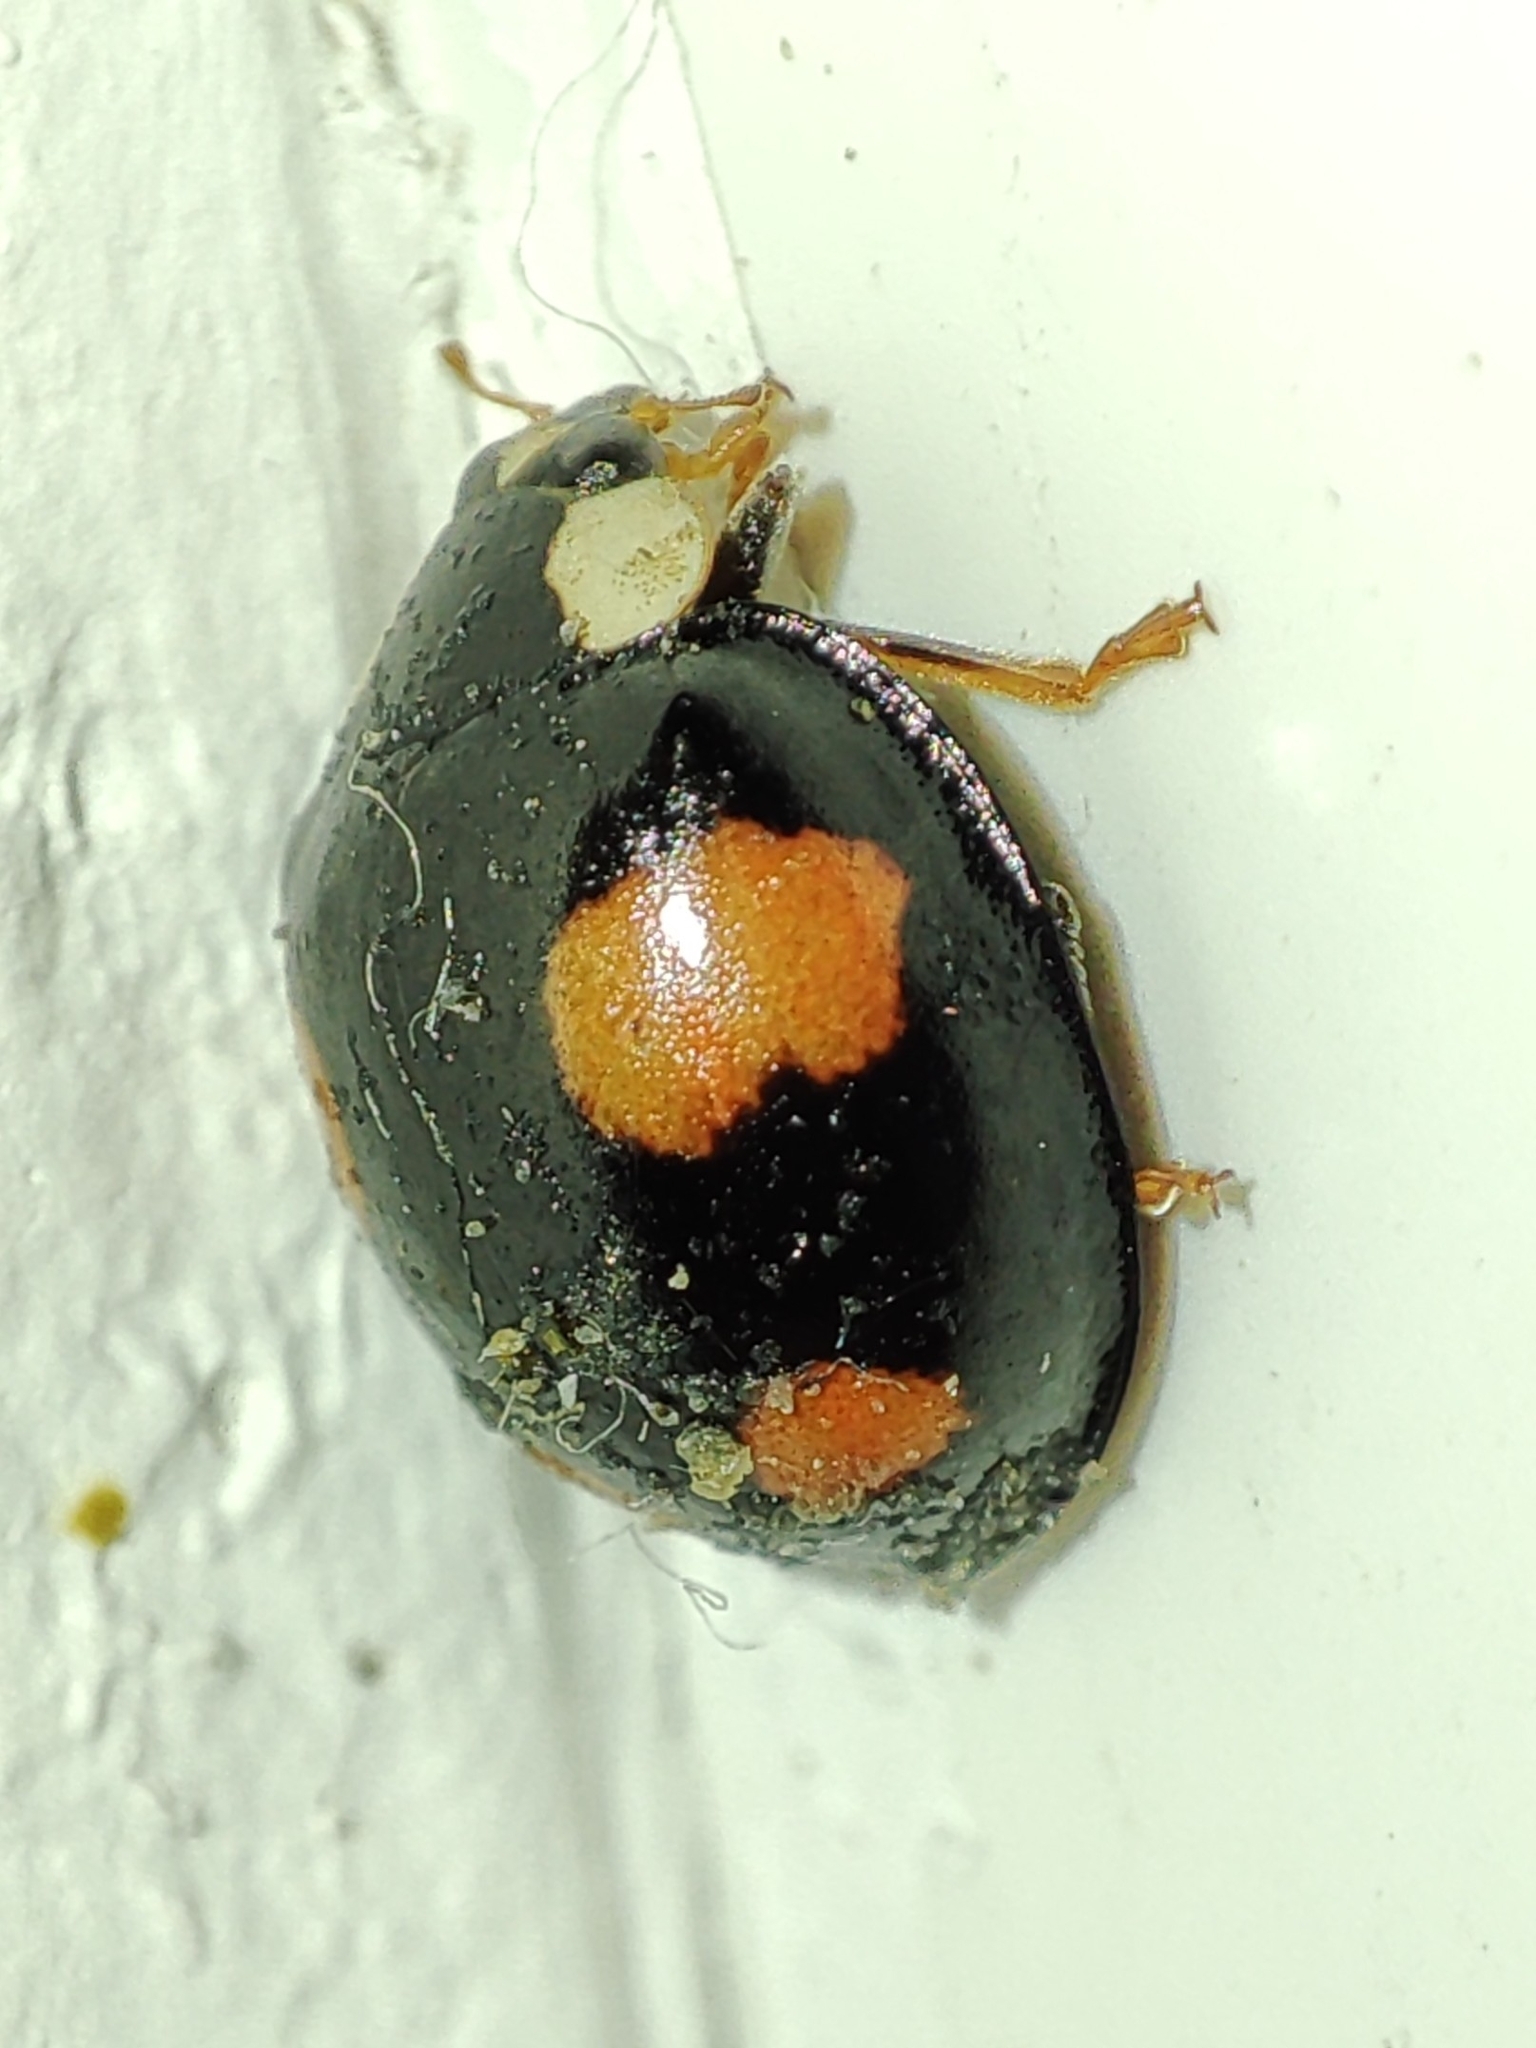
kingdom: Animalia
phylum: Arthropoda
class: Insecta
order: Coleoptera
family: Coccinellidae
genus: Harmonia
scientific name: Harmonia axyridis
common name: Harlequin ladybird
